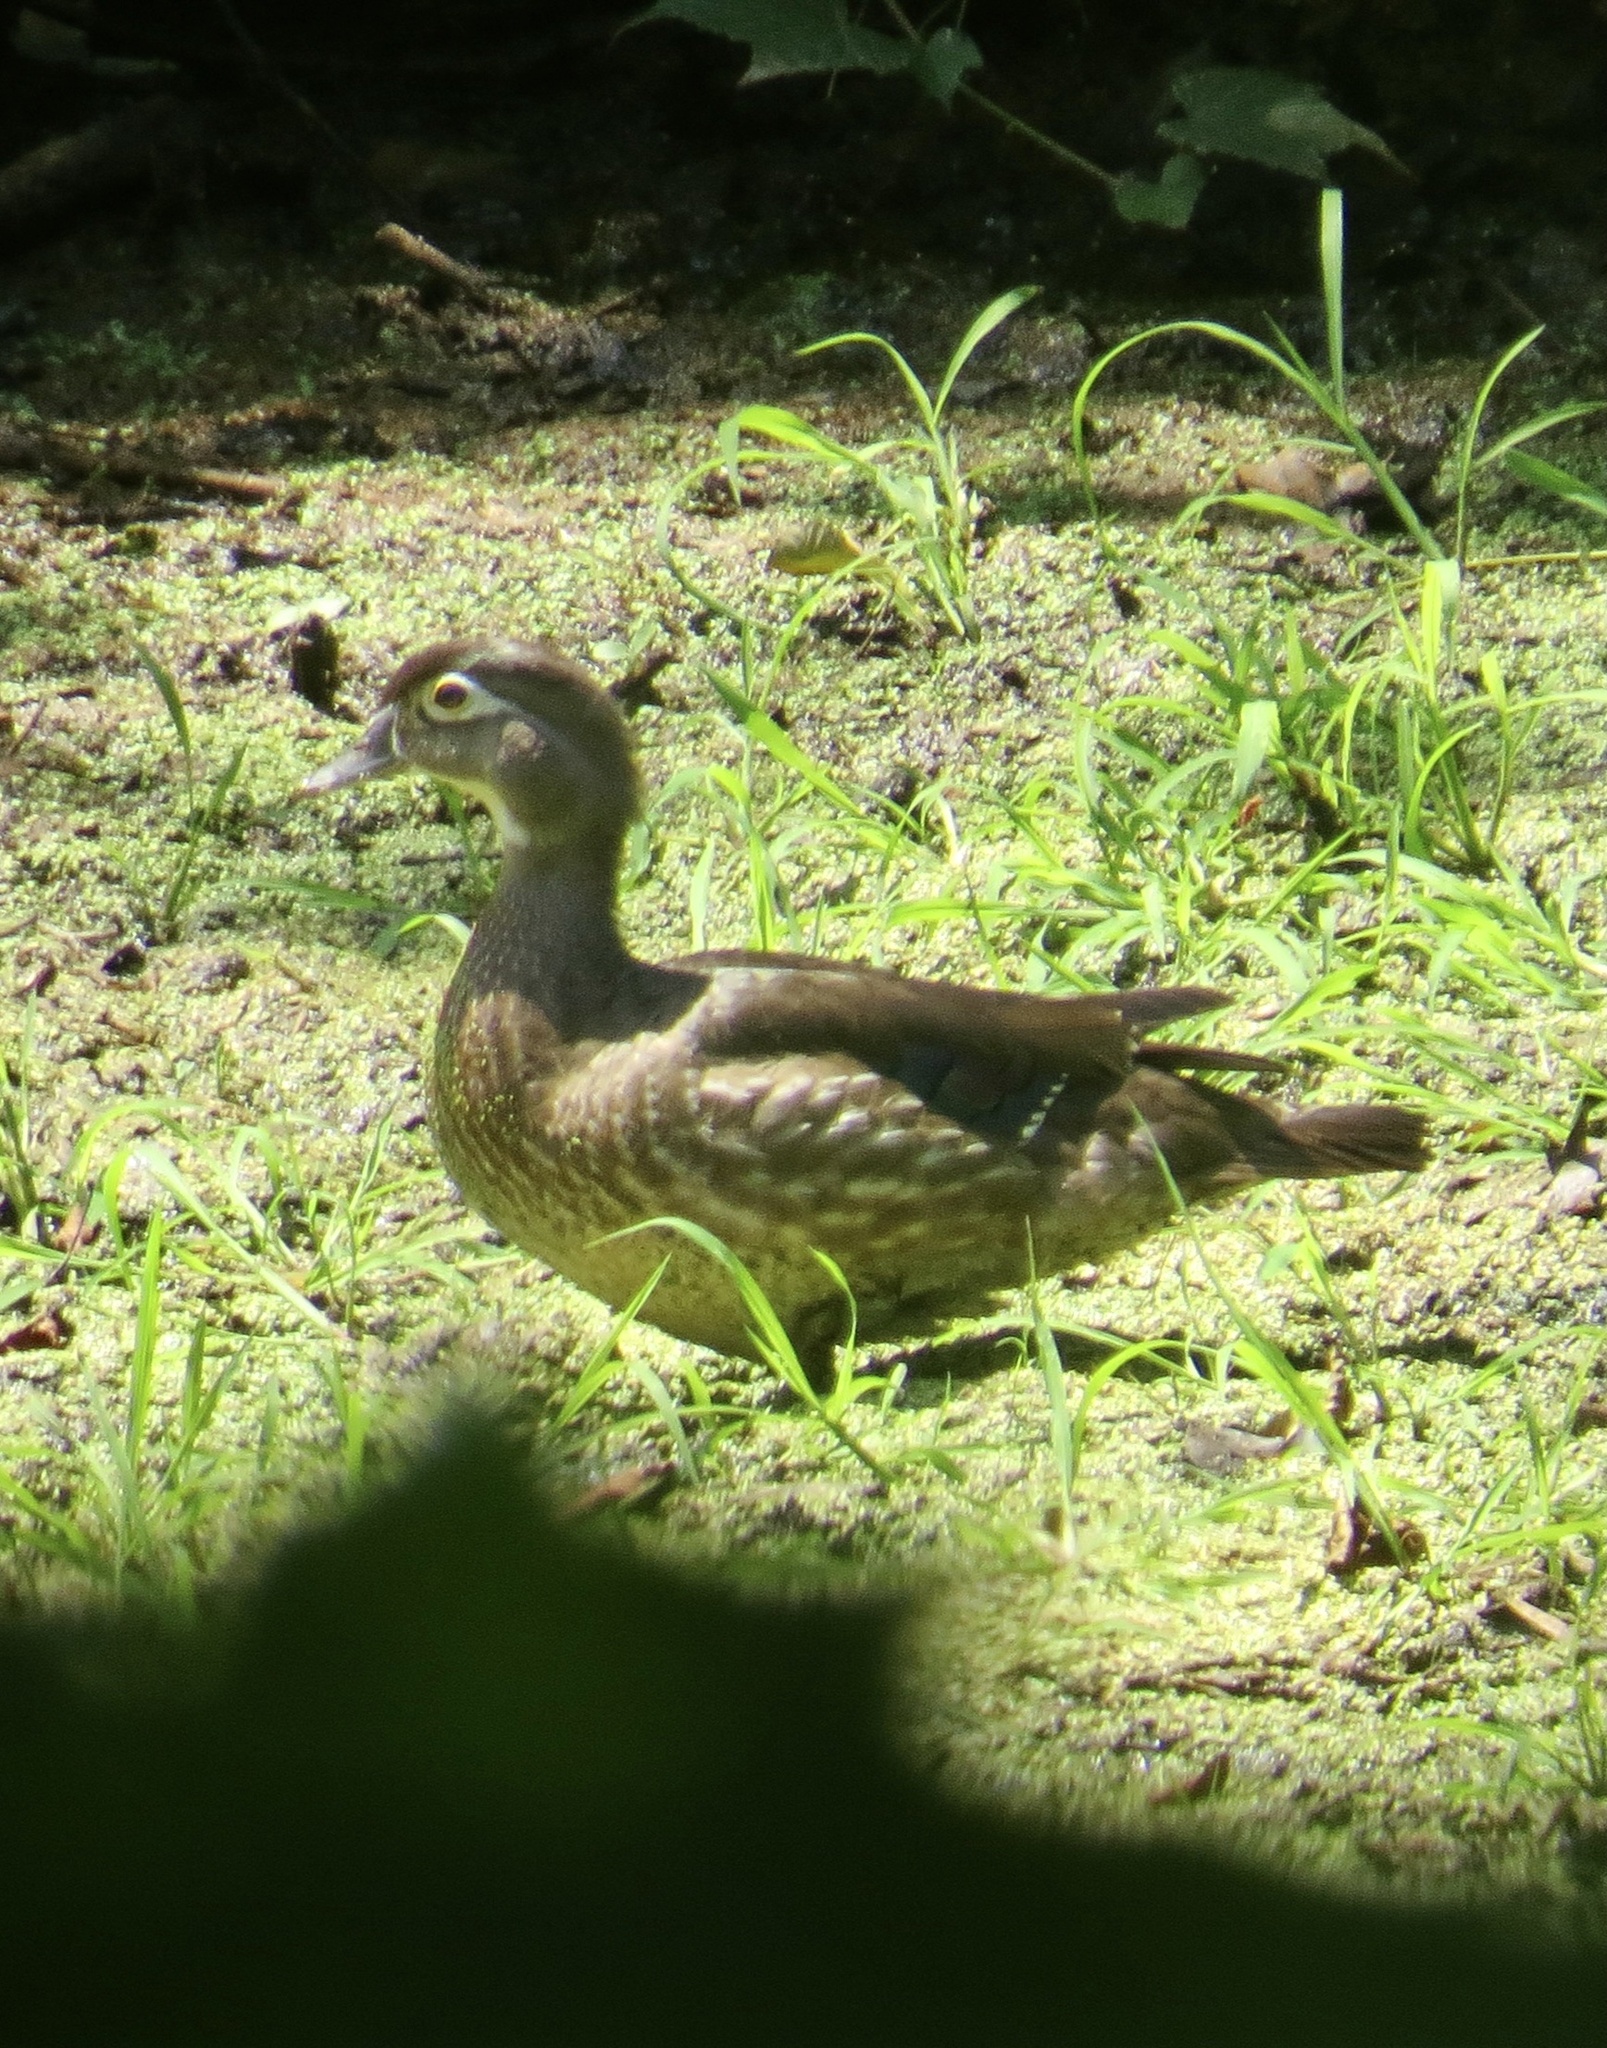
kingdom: Animalia
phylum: Chordata
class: Aves
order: Anseriformes
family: Anatidae
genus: Aix
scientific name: Aix sponsa
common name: Wood duck
